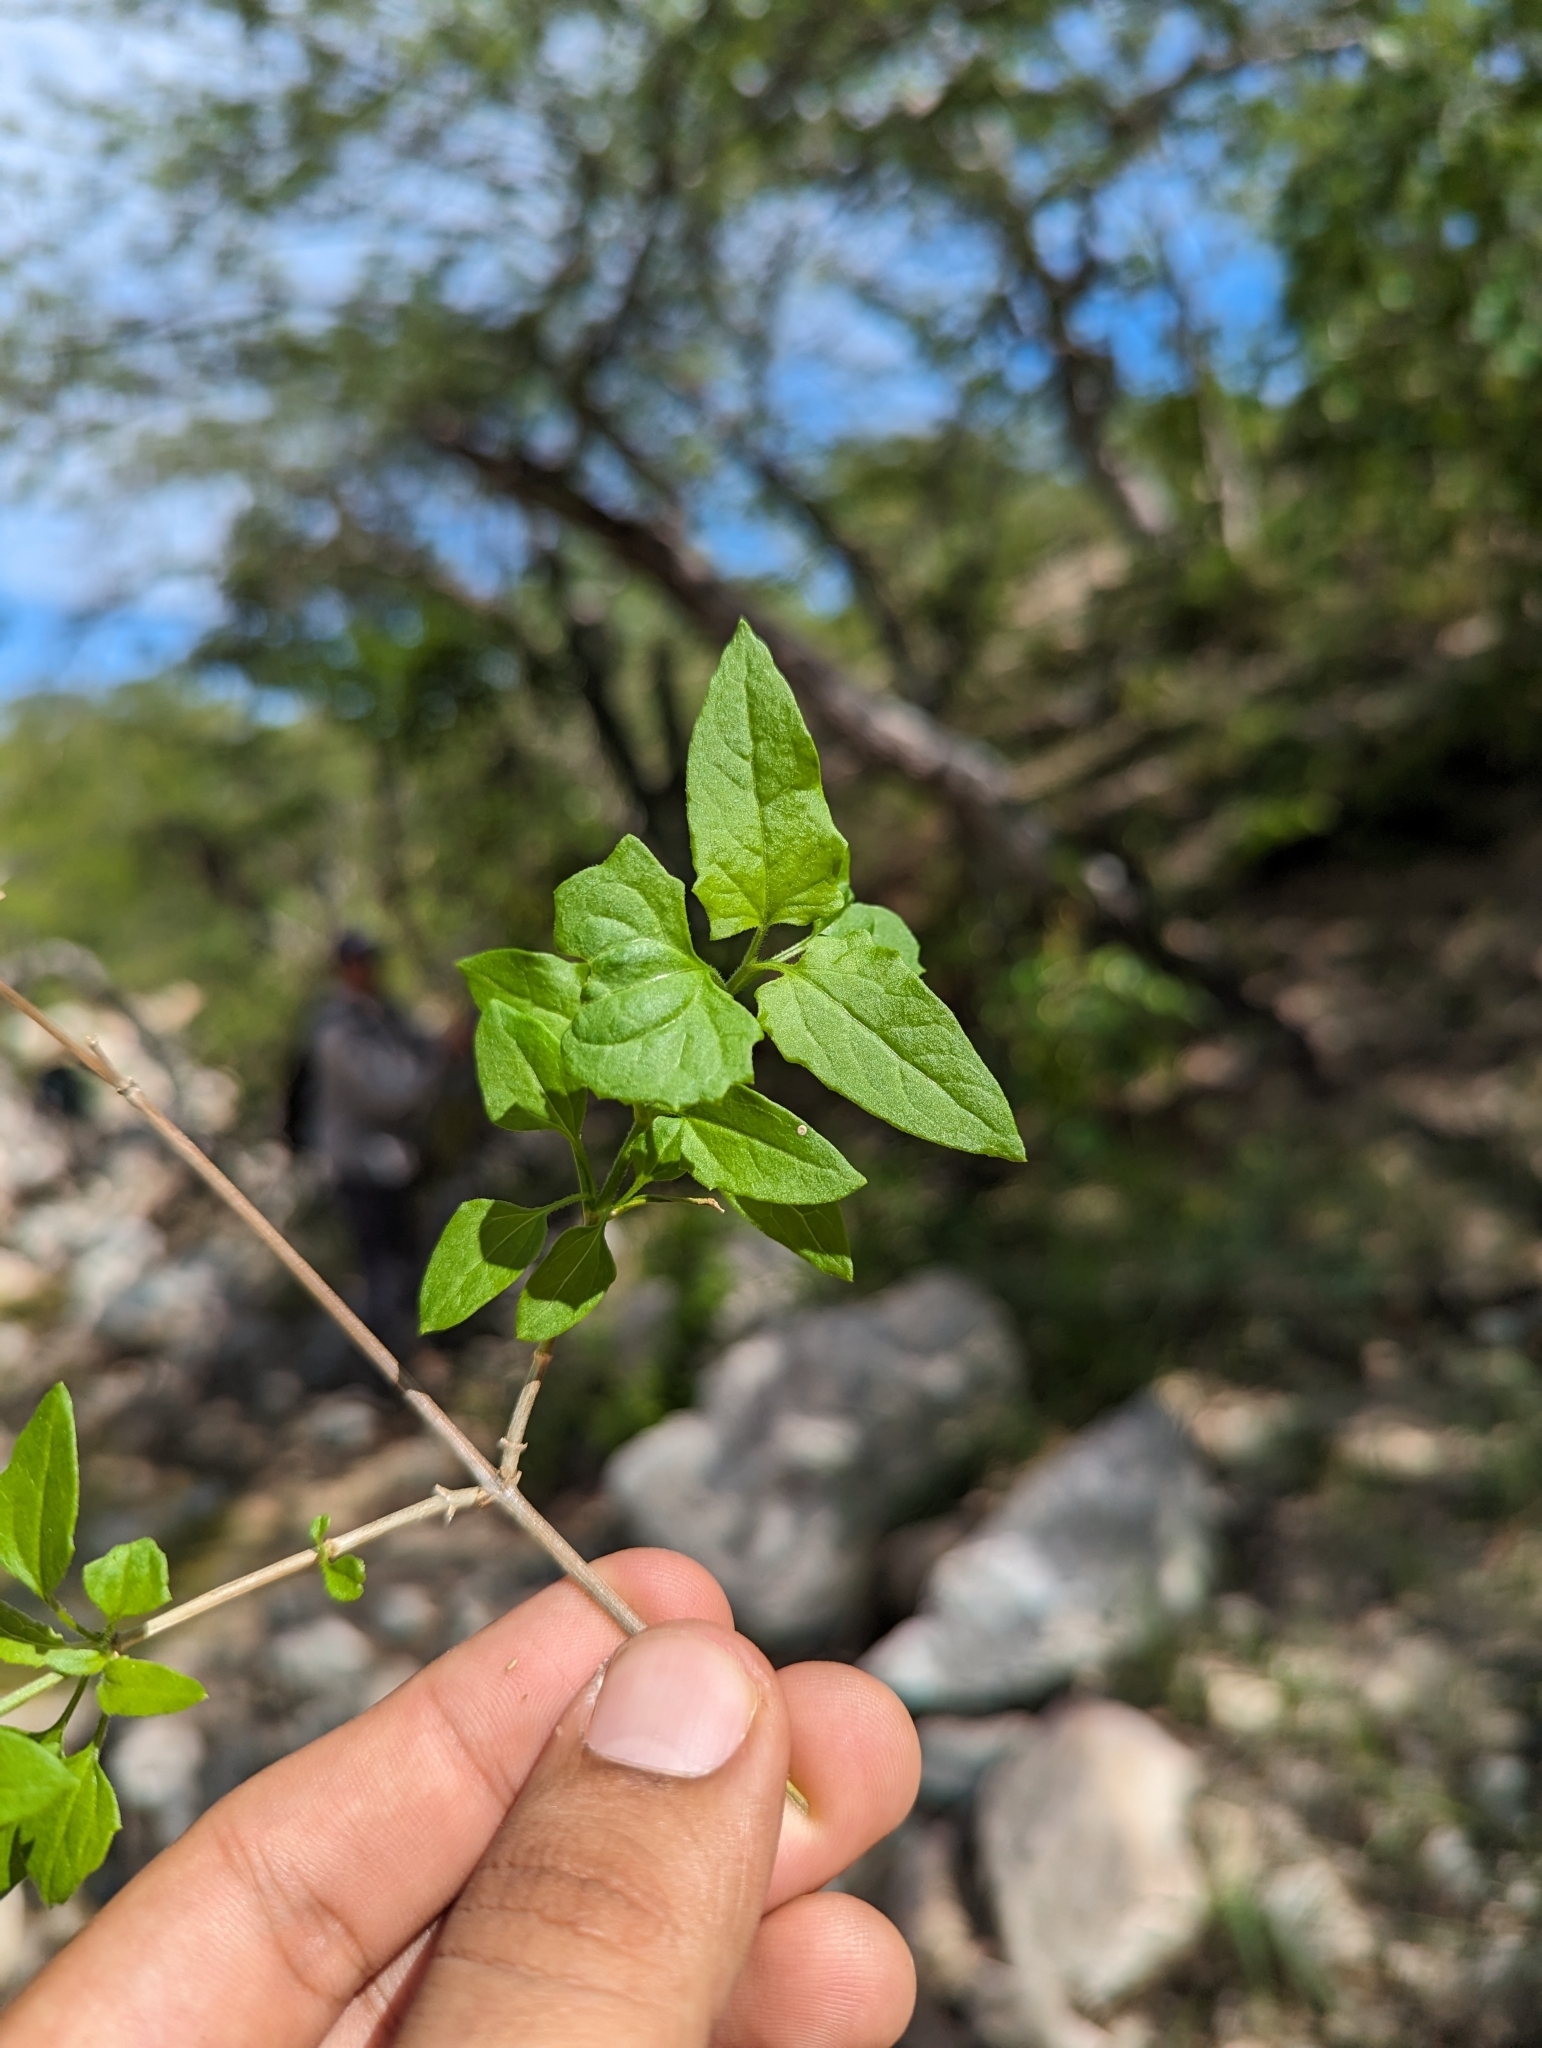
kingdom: Plantae
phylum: Tracheophyta
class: Magnoliopsida
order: Asterales
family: Asteraceae
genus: Brickellia
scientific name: Brickellia coulteri
